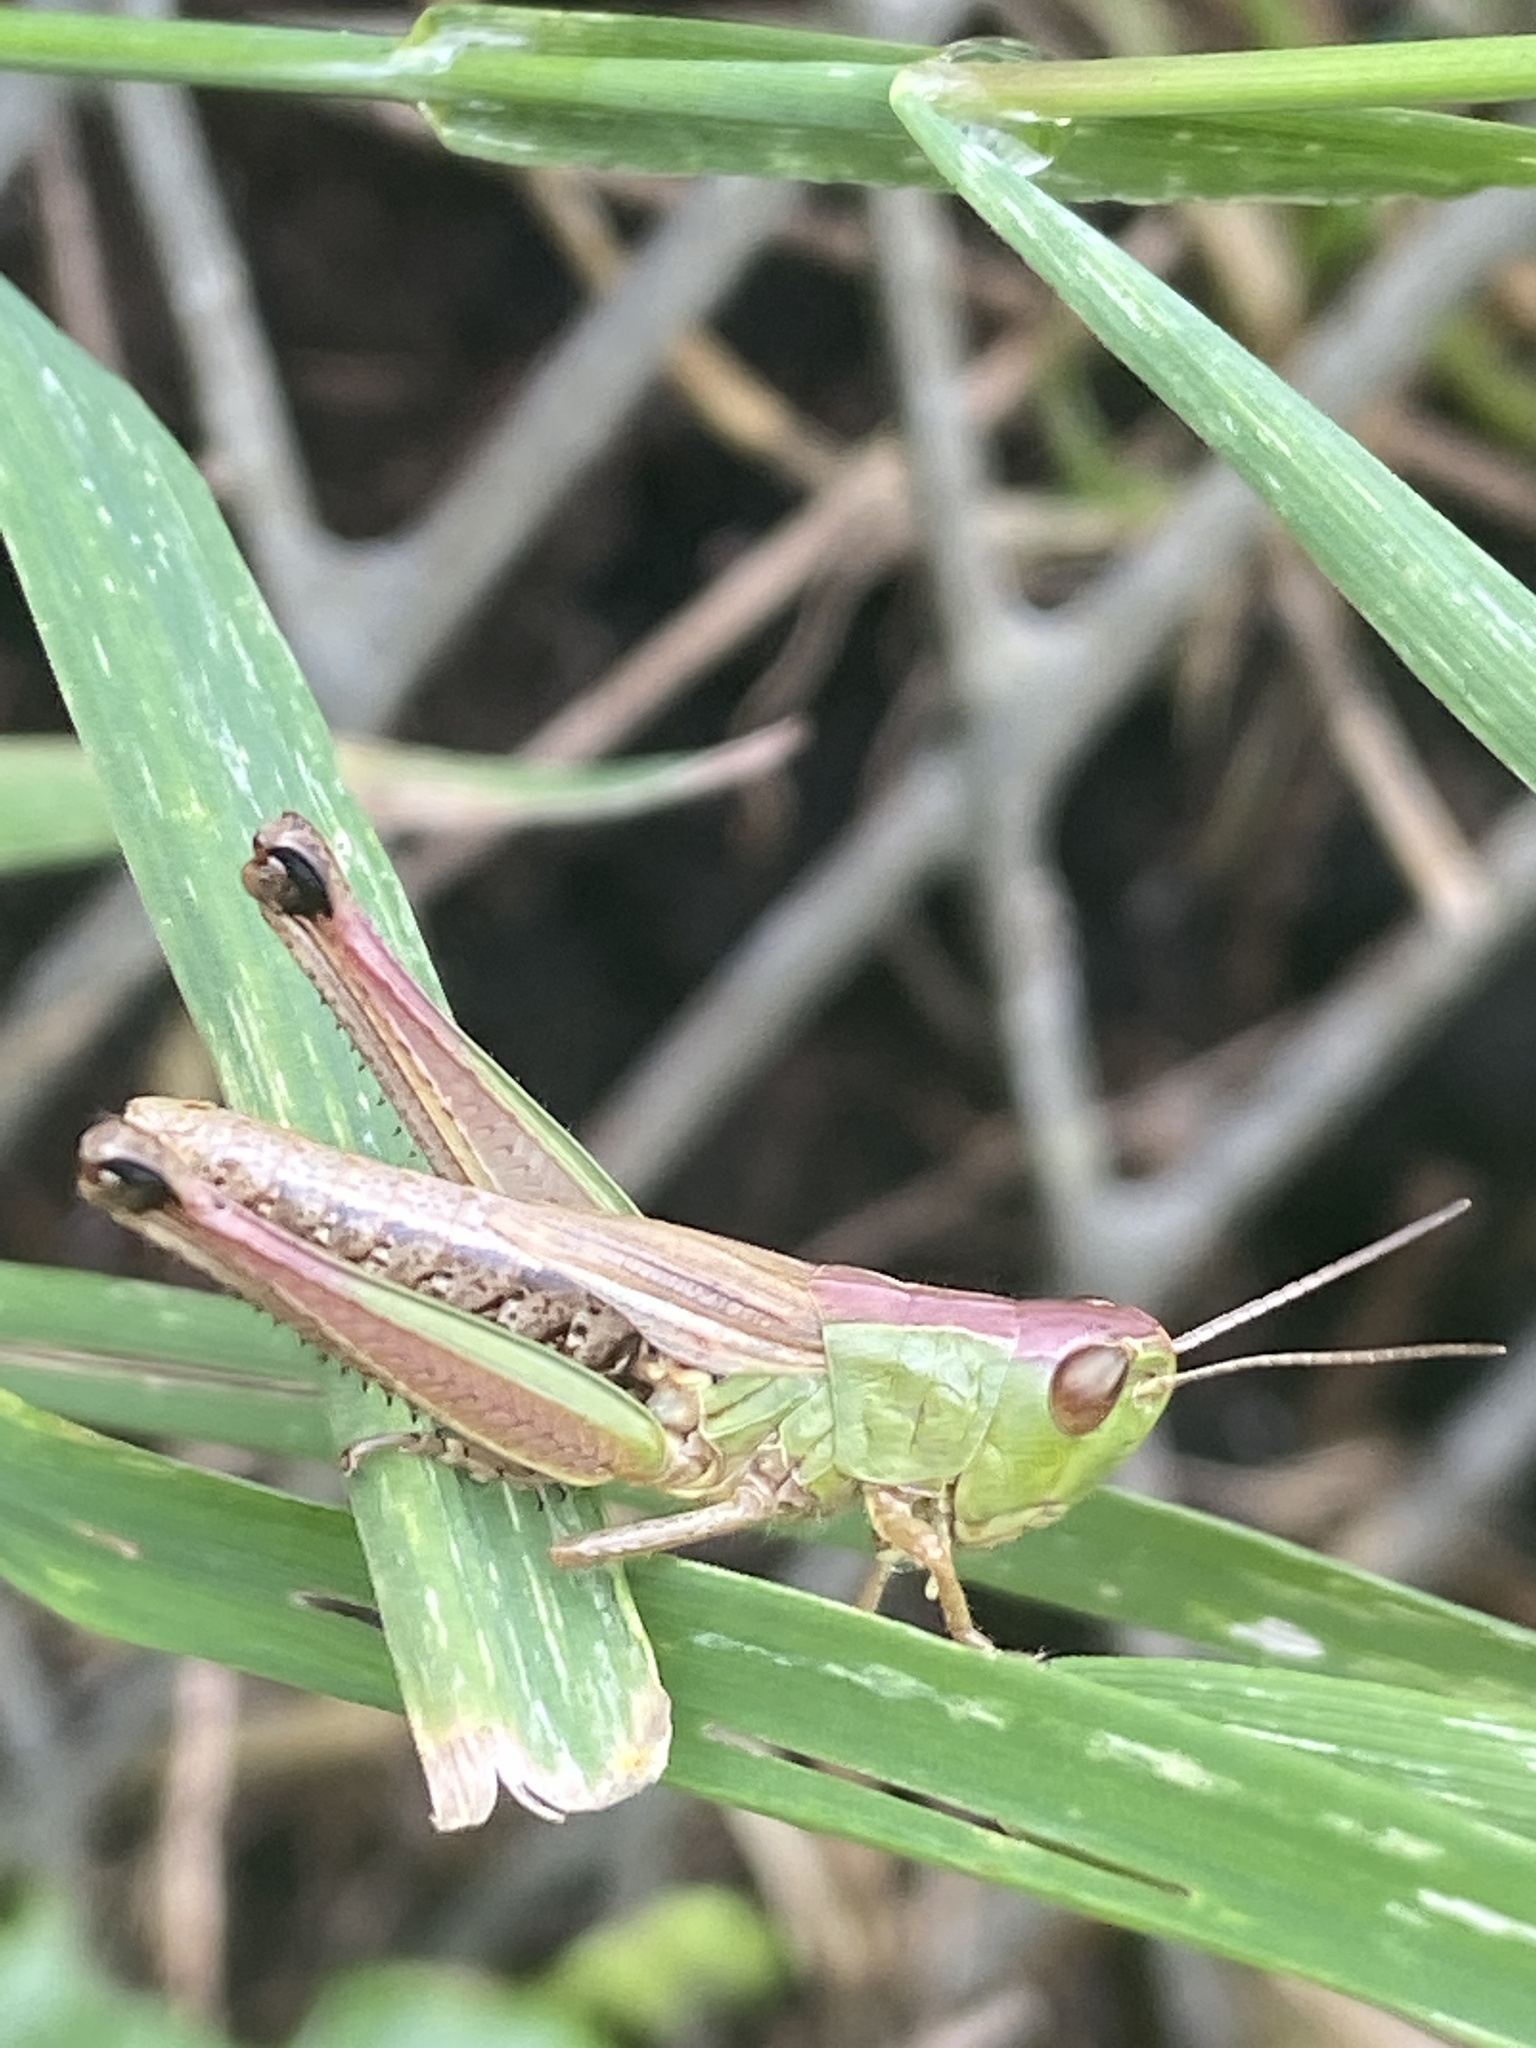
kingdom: Animalia
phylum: Arthropoda
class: Insecta
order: Orthoptera
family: Acrididae
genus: Pseudochorthippus
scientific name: Pseudochorthippus parallelus
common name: Meadow grasshopper
